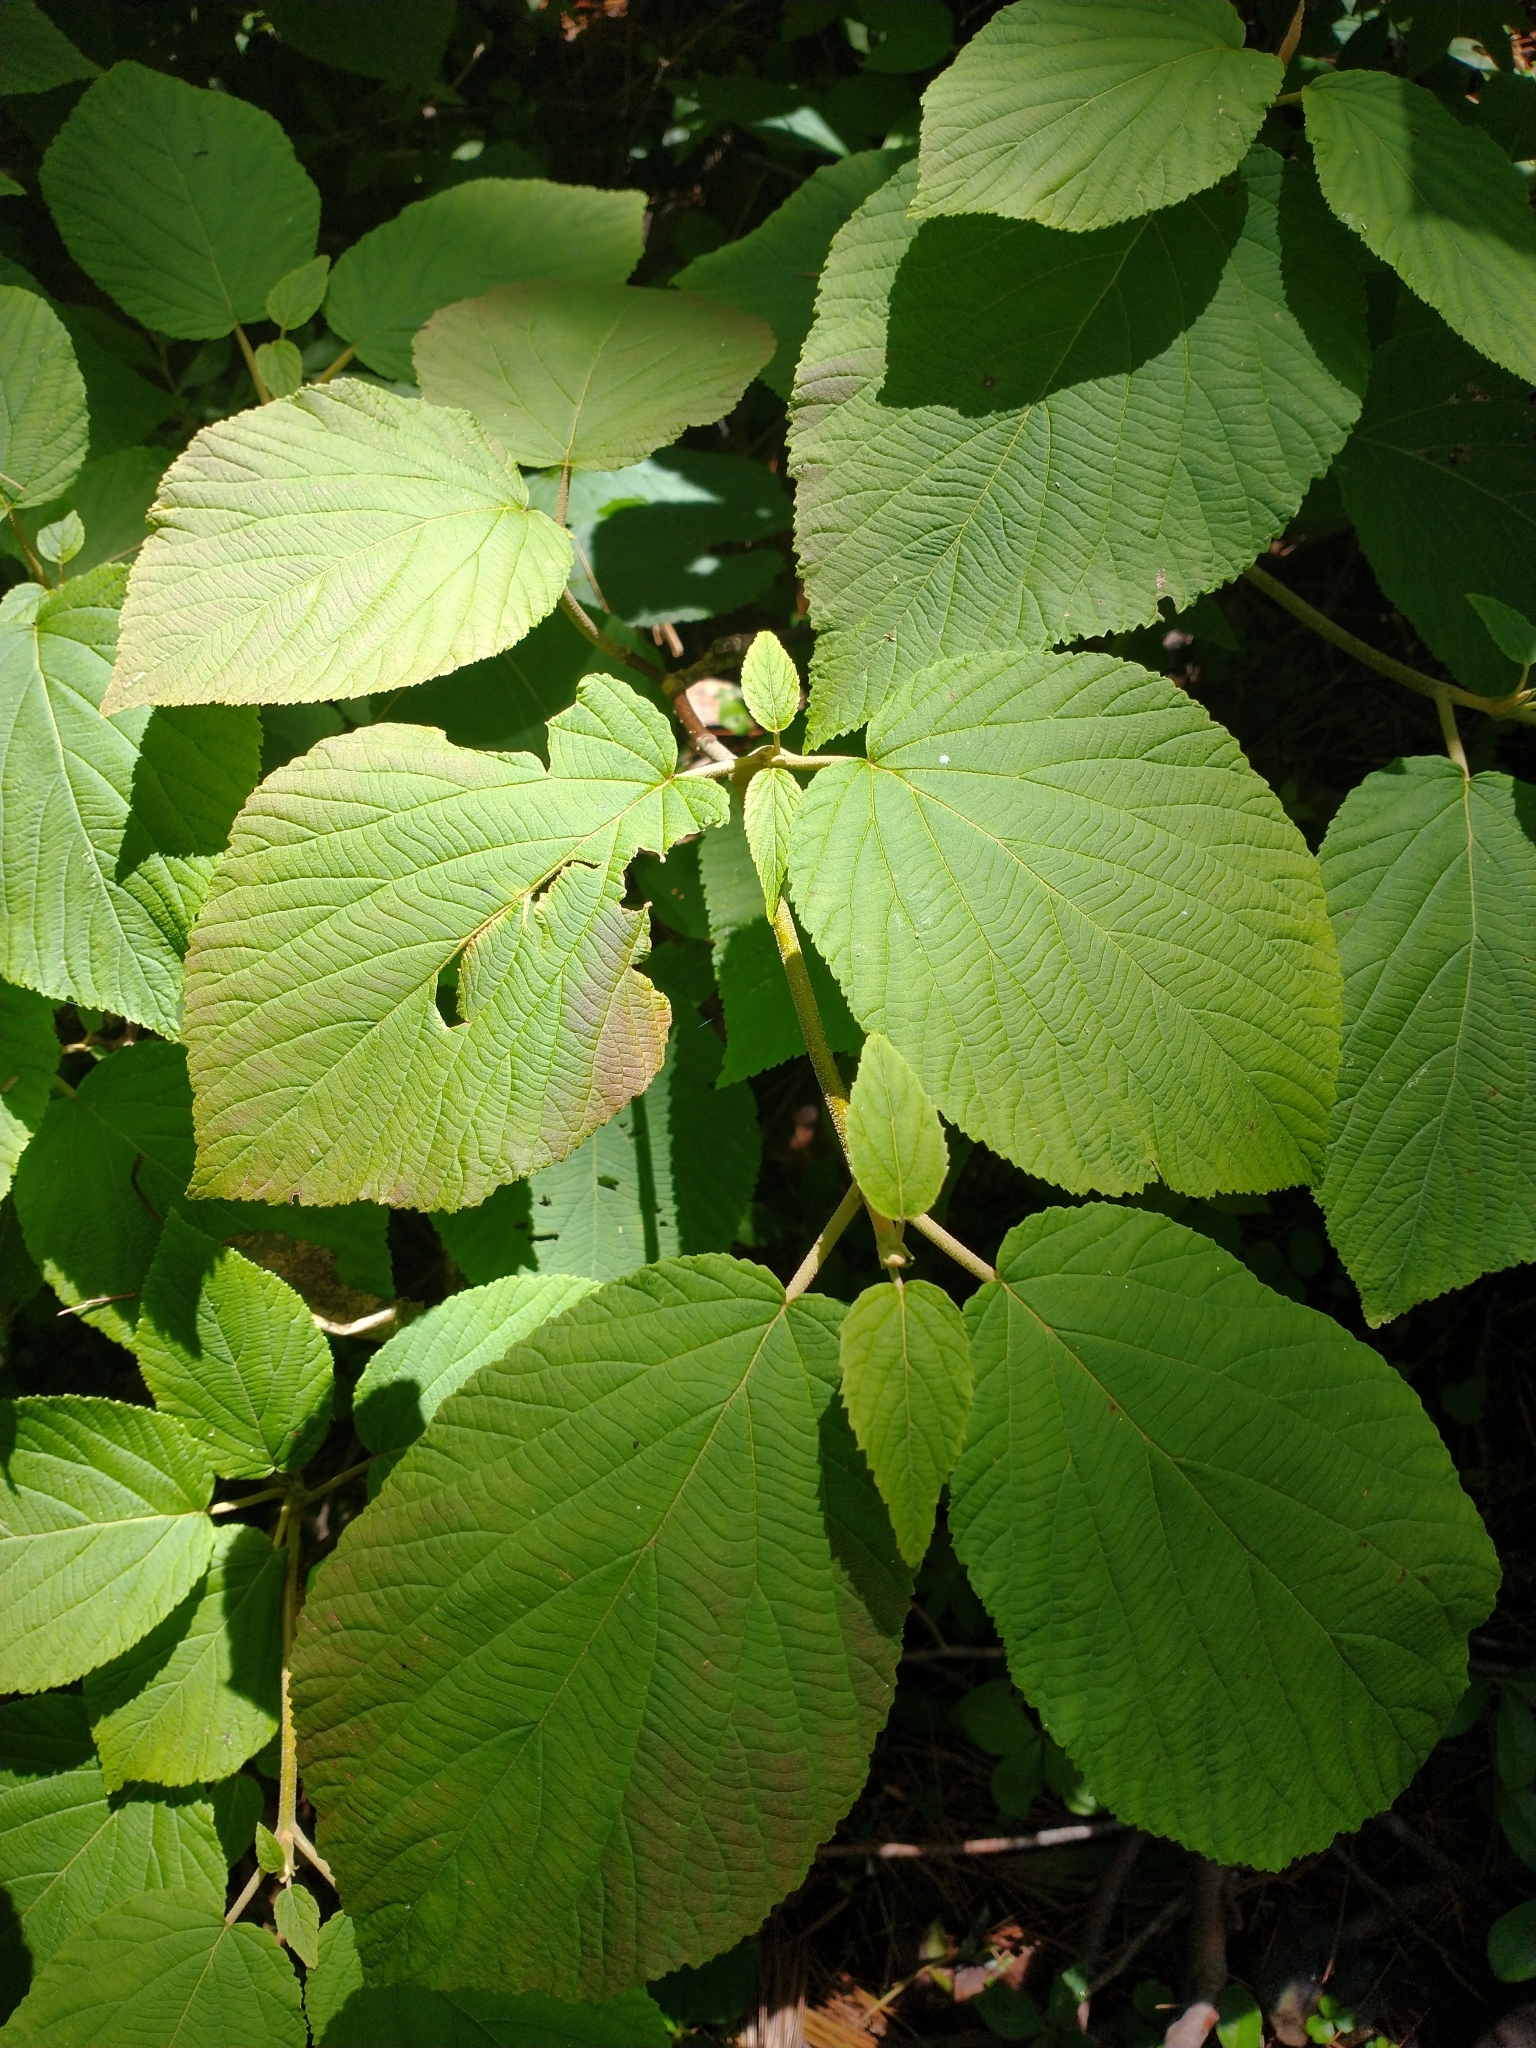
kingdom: Plantae
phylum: Tracheophyta
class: Magnoliopsida
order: Dipsacales
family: Viburnaceae
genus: Viburnum
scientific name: Viburnum lantanoides
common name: Hobblebush
